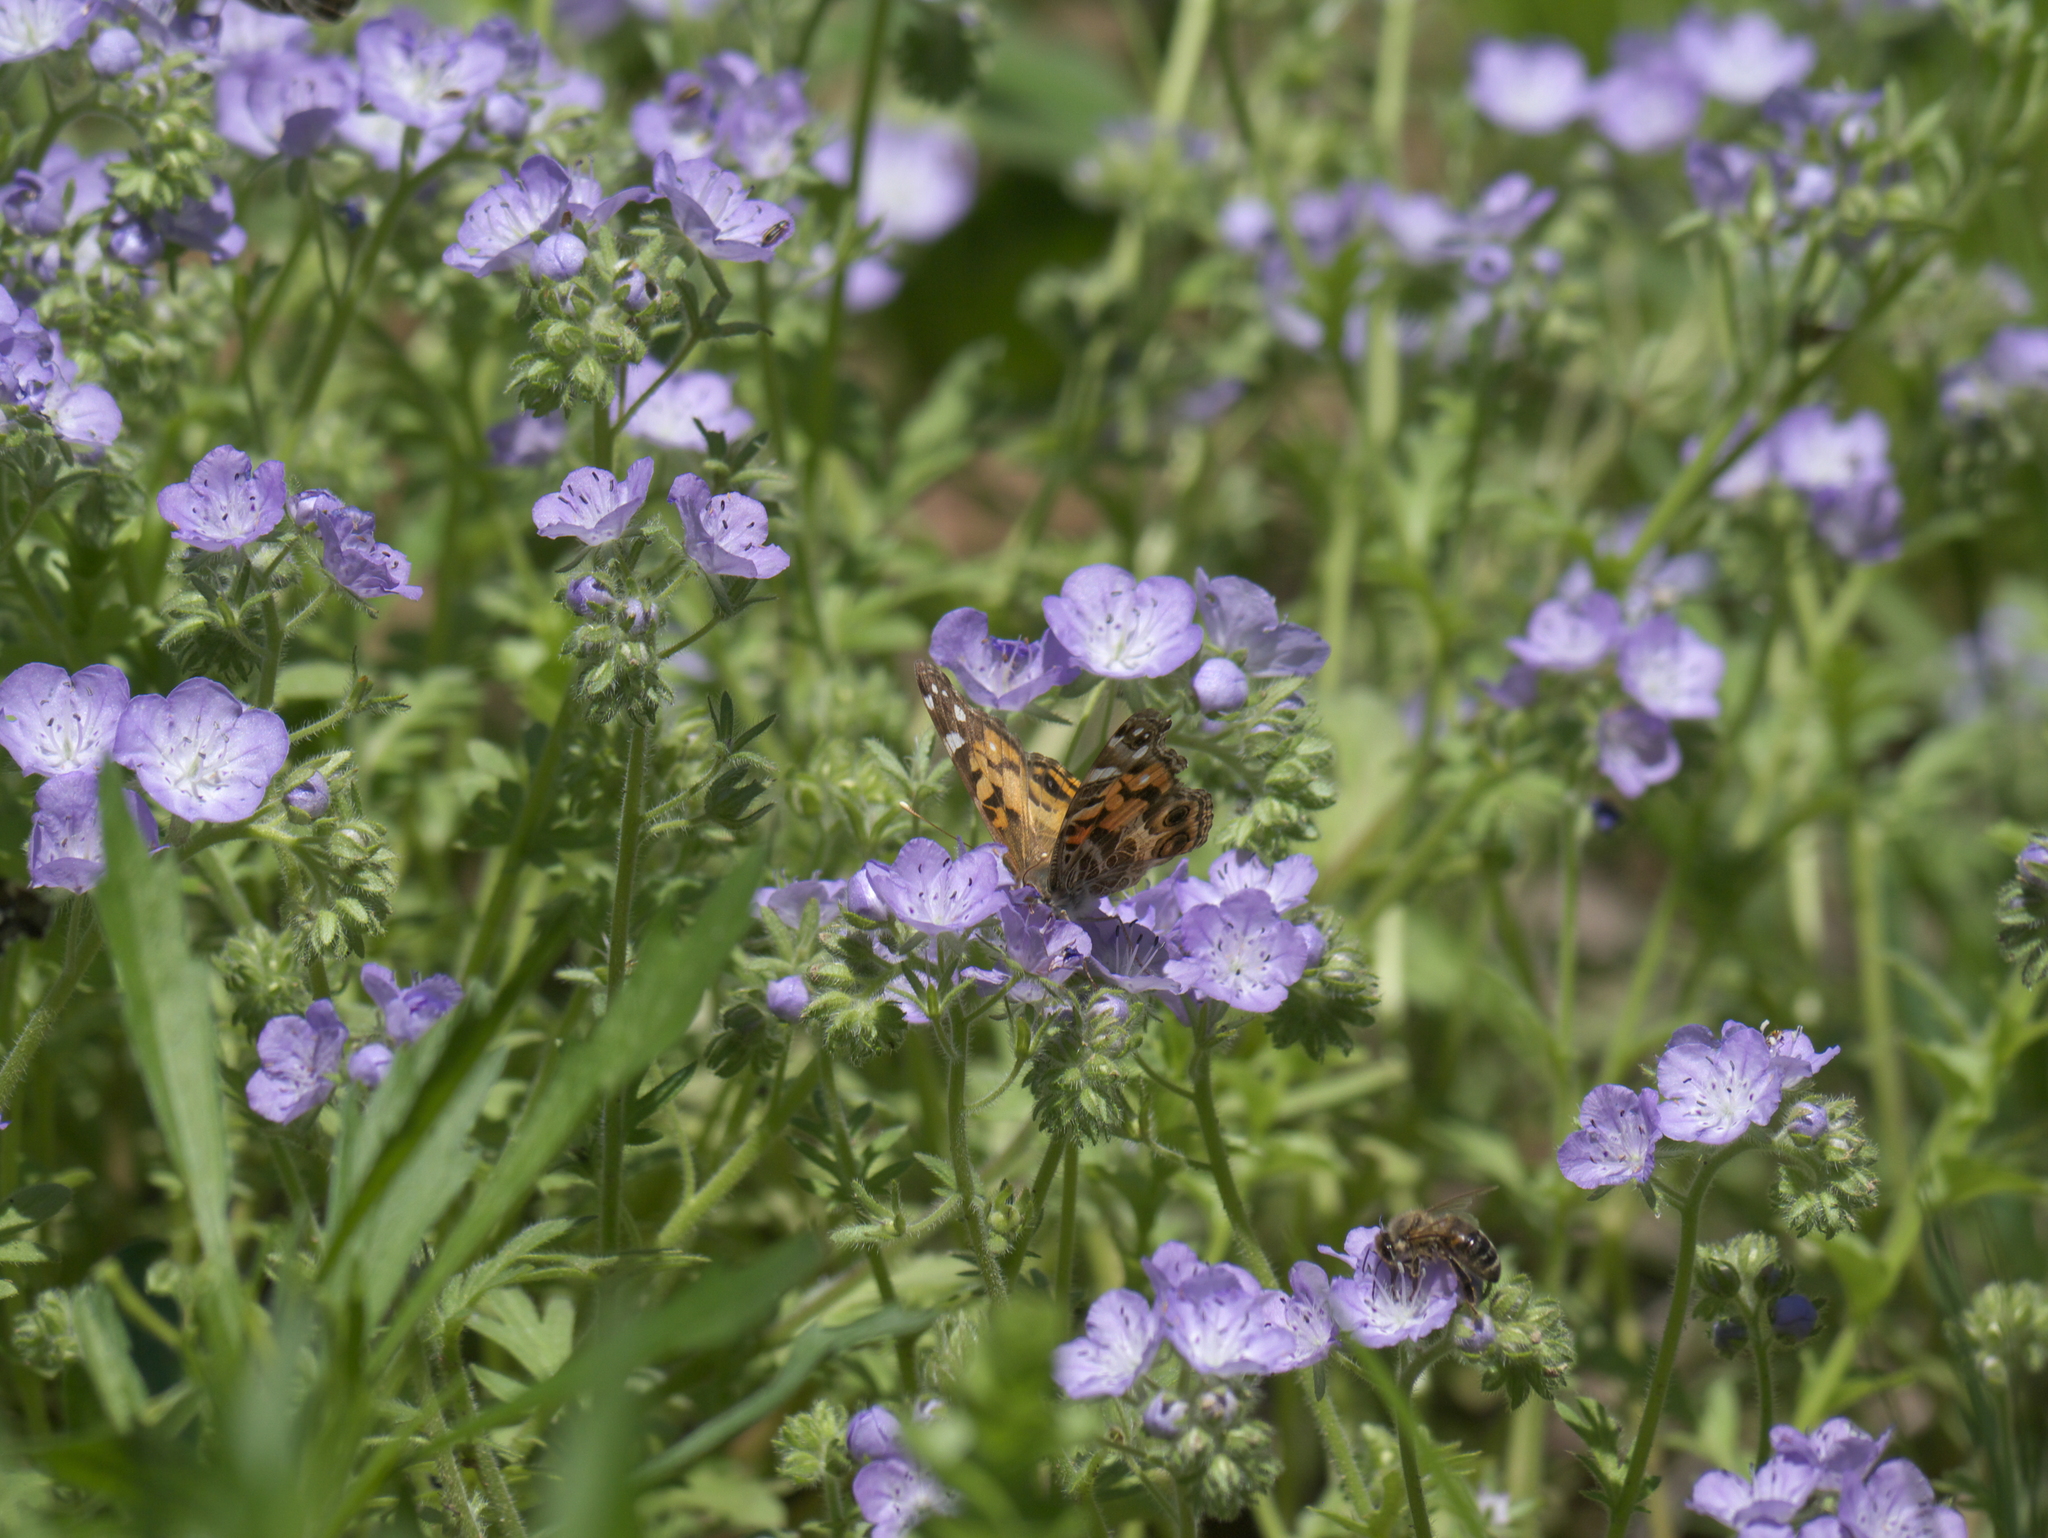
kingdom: Plantae
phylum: Tracheophyta
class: Magnoliopsida
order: Boraginales
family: Hydrophyllaceae
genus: Phacelia
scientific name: Phacelia hirsuta
